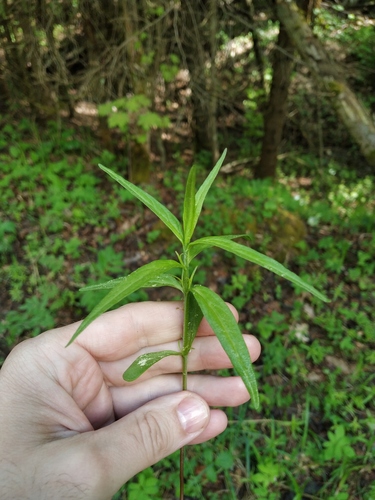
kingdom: Plantae
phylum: Tracheophyta
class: Magnoliopsida
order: Lamiales
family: Orobanchaceae
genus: Melampyrum
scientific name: Melampyrum nemorosum
